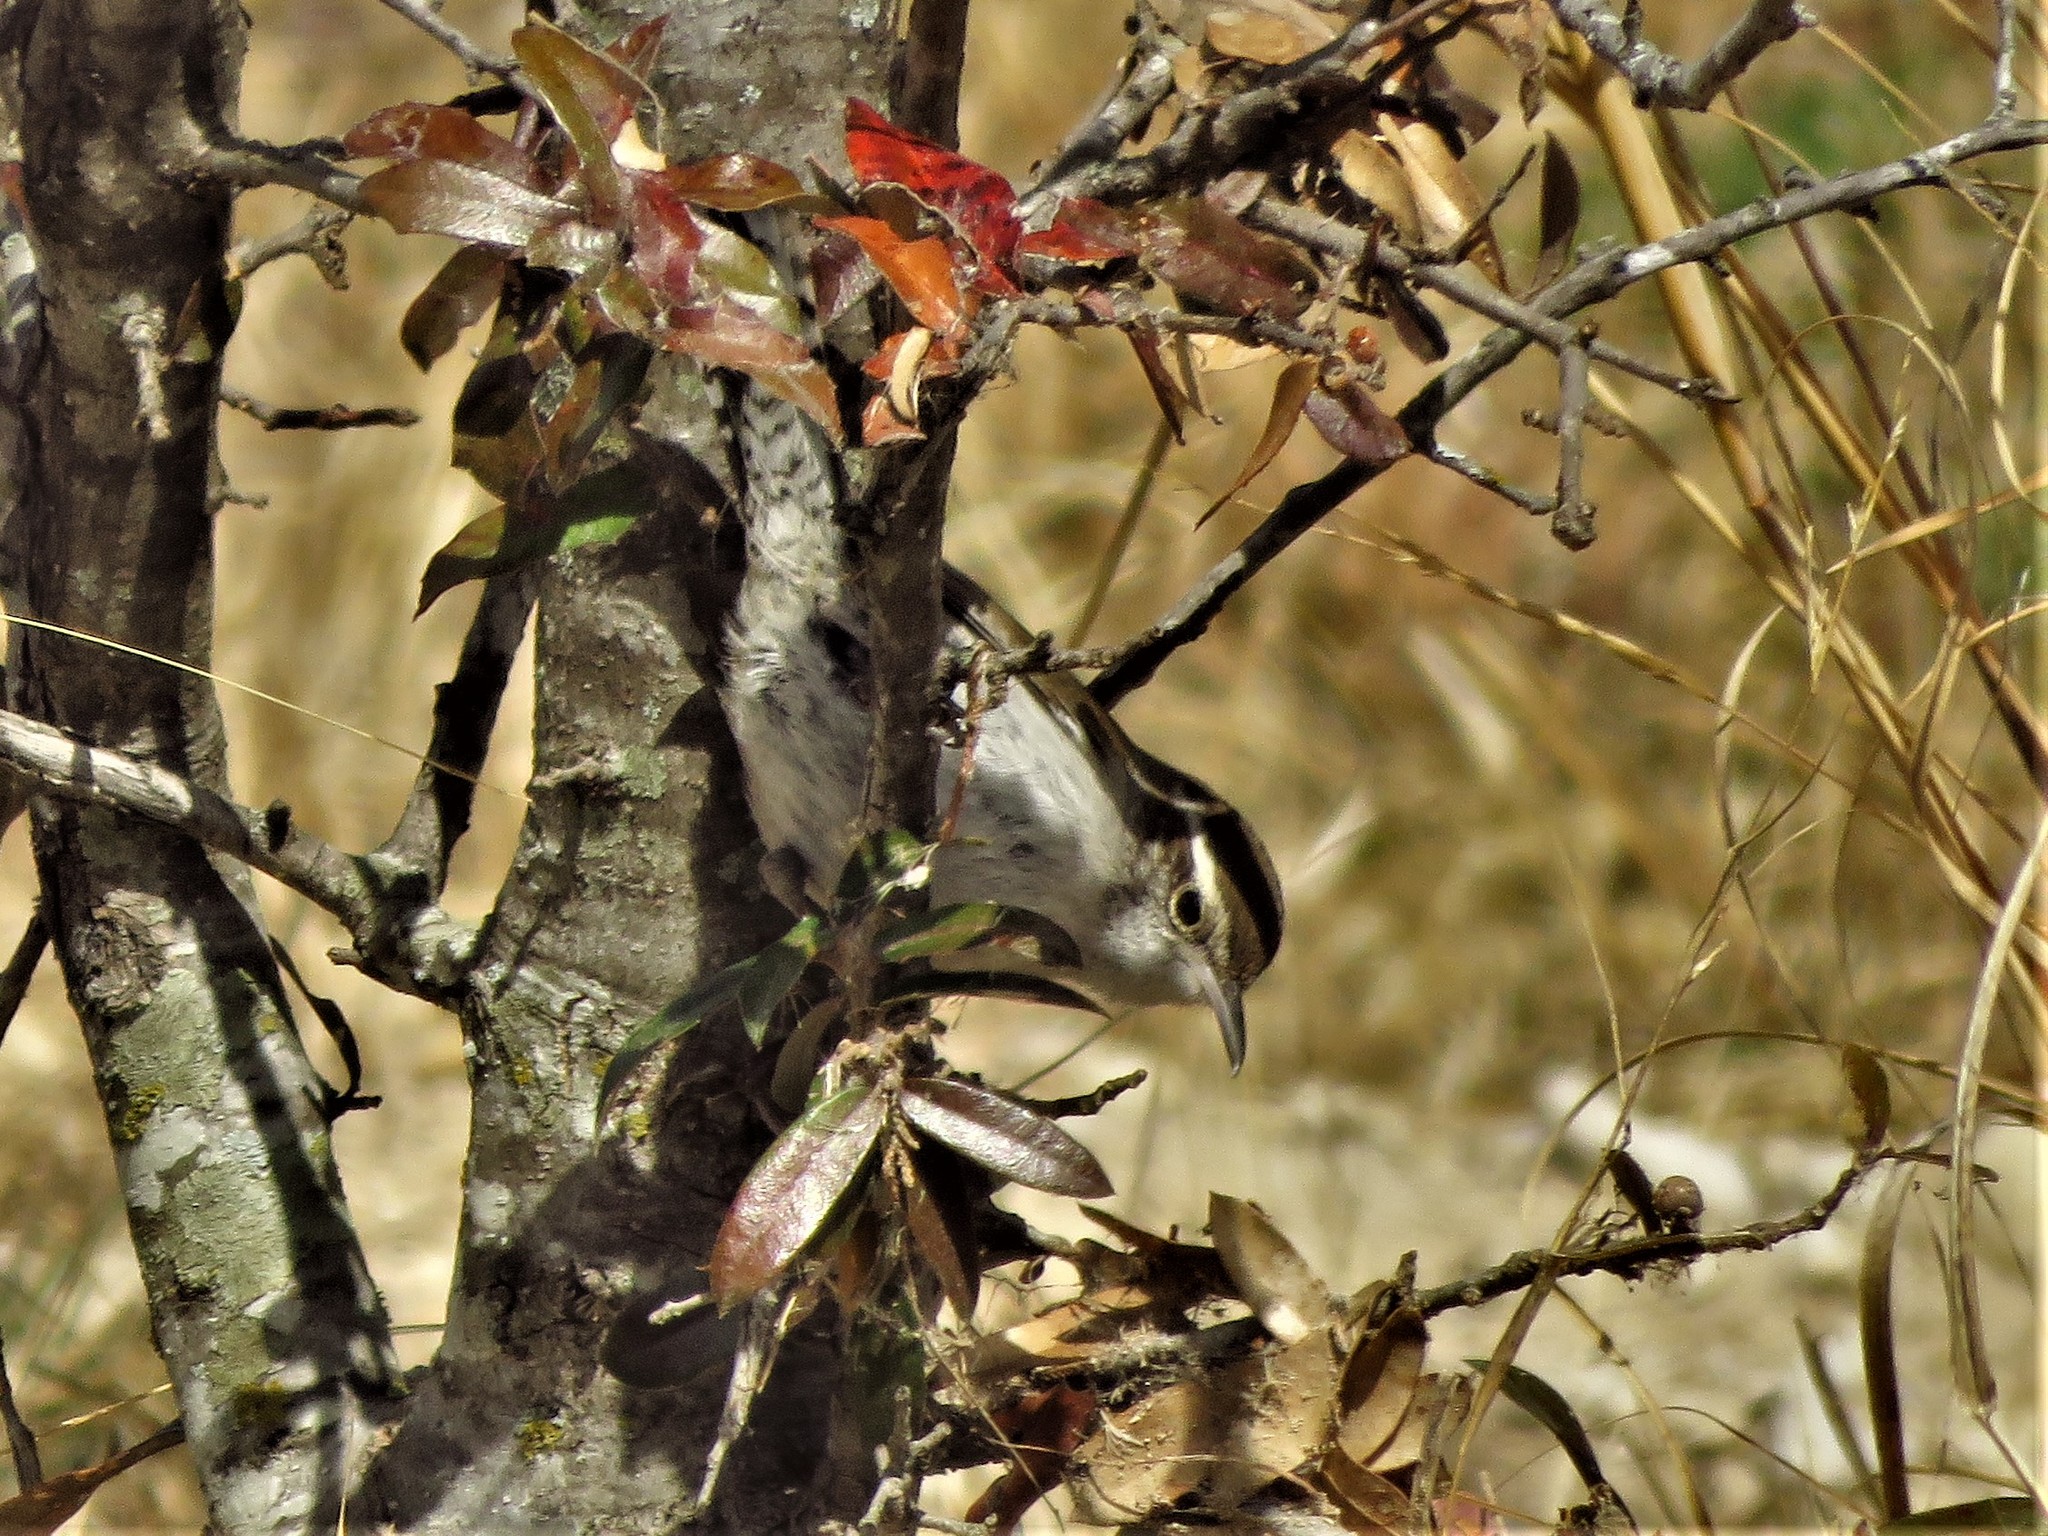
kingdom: Animalia
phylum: Chordata
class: Aves
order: Passeriformes
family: Troglodytidae
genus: Thryomanes
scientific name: Thryomanes bewickii
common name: Bewick's wren
